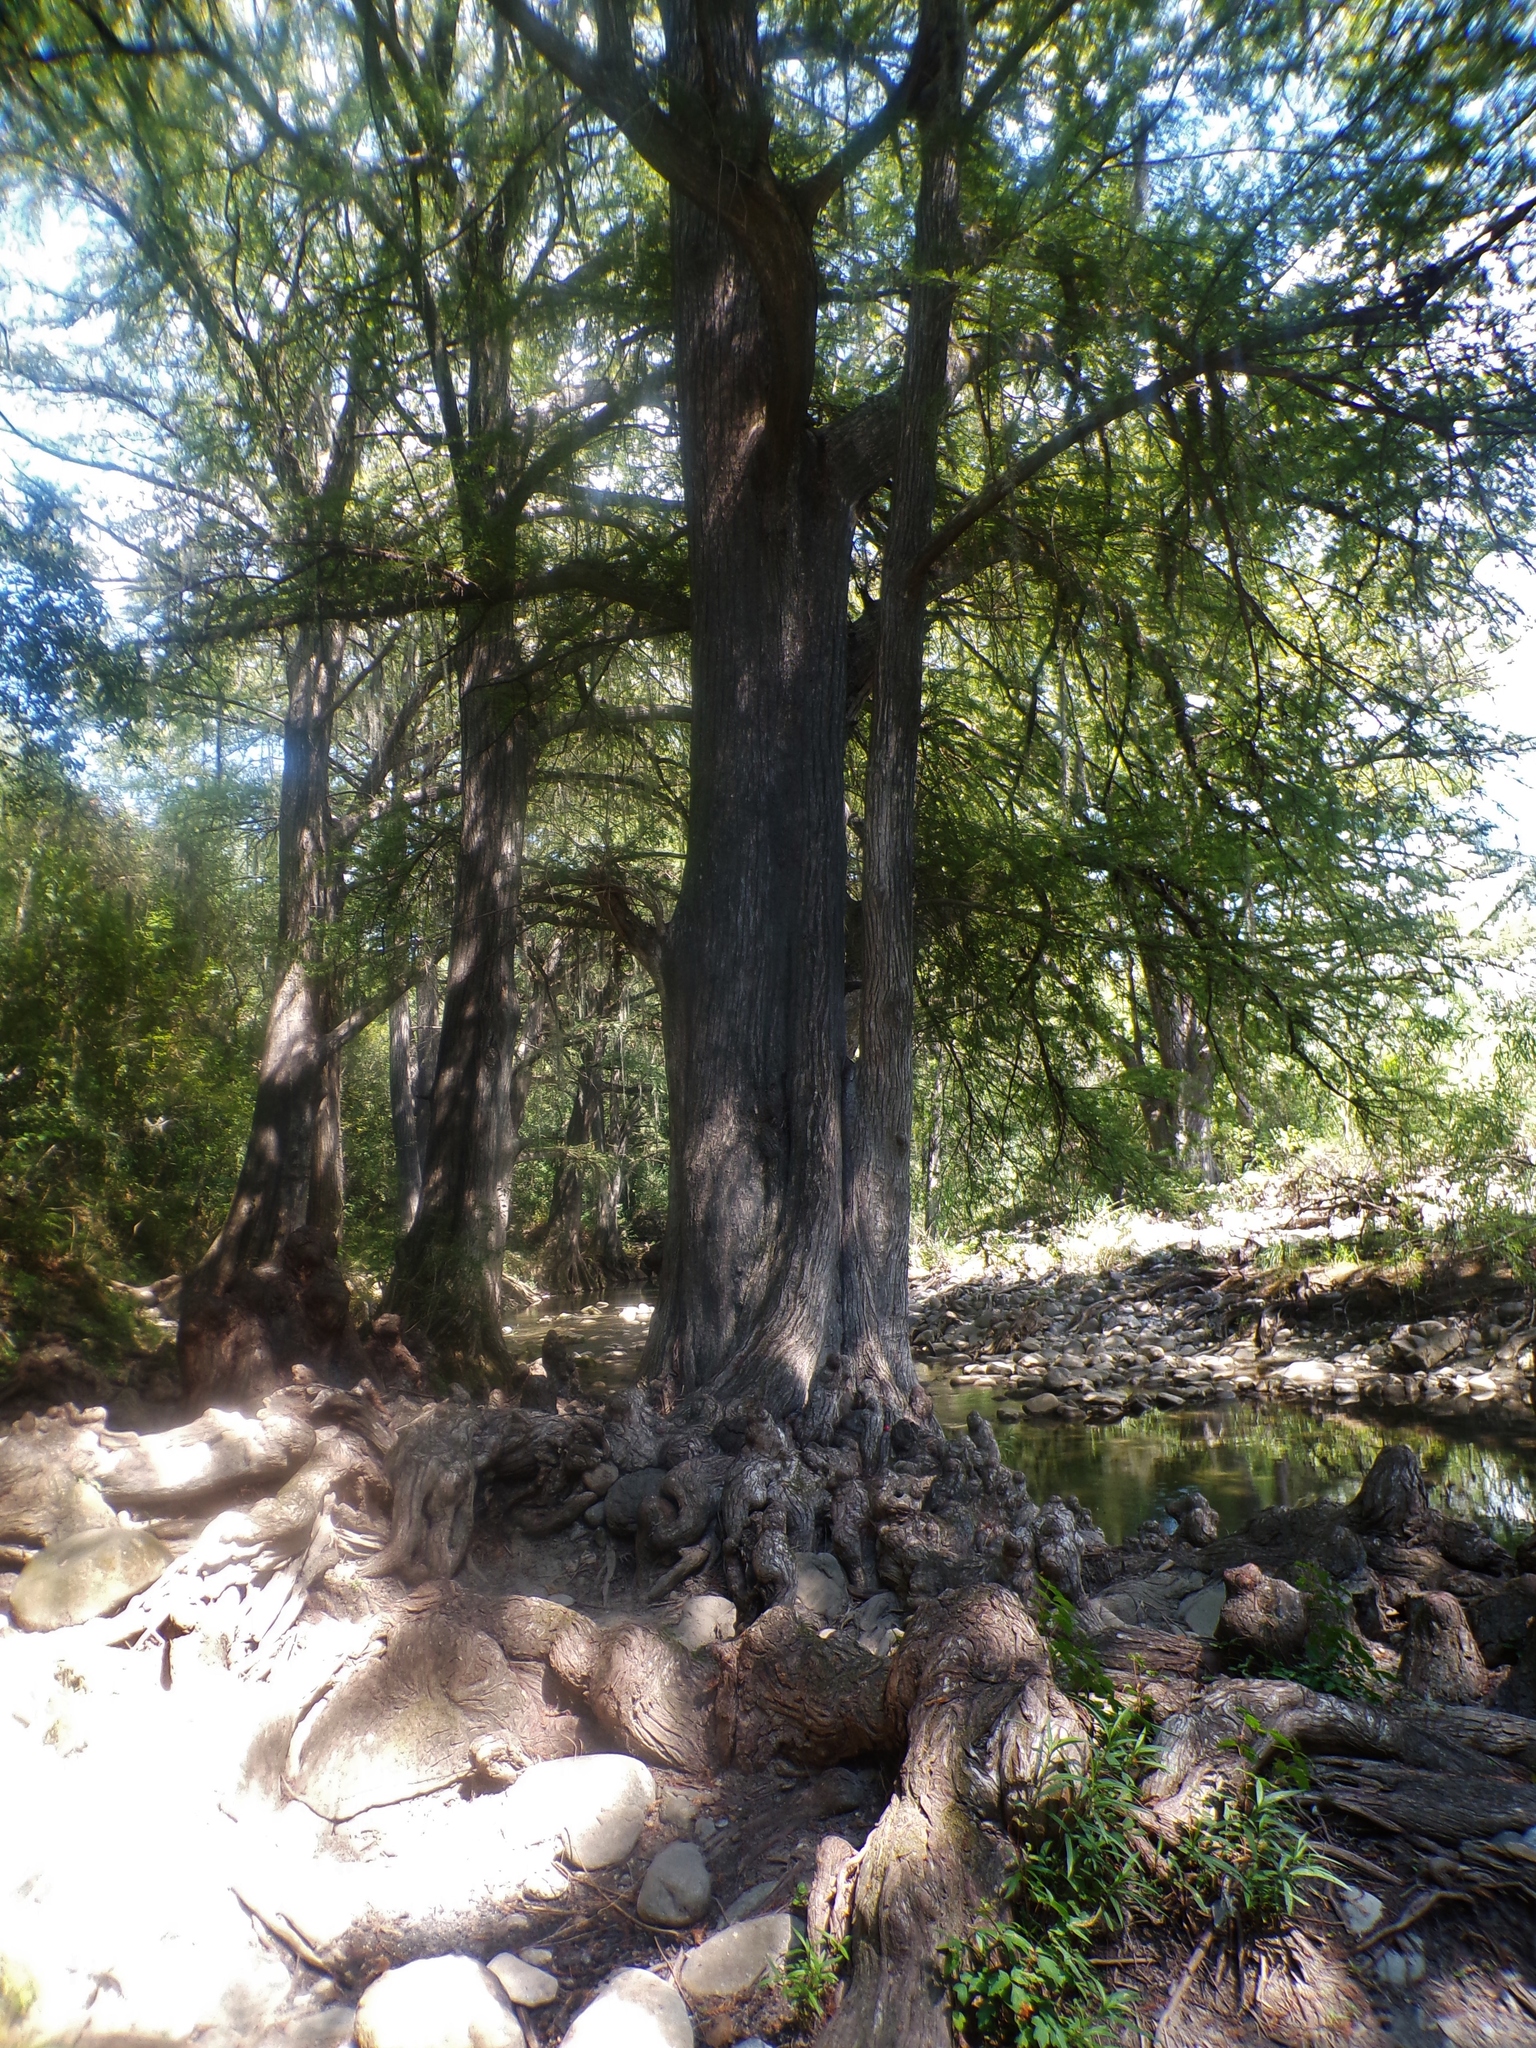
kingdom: Plantae
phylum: Tracheophyta
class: Pinopsida
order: Pinales
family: Cupressaceae
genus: Taxodium
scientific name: Taxodium mucronatum
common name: Montezume bald cypress
